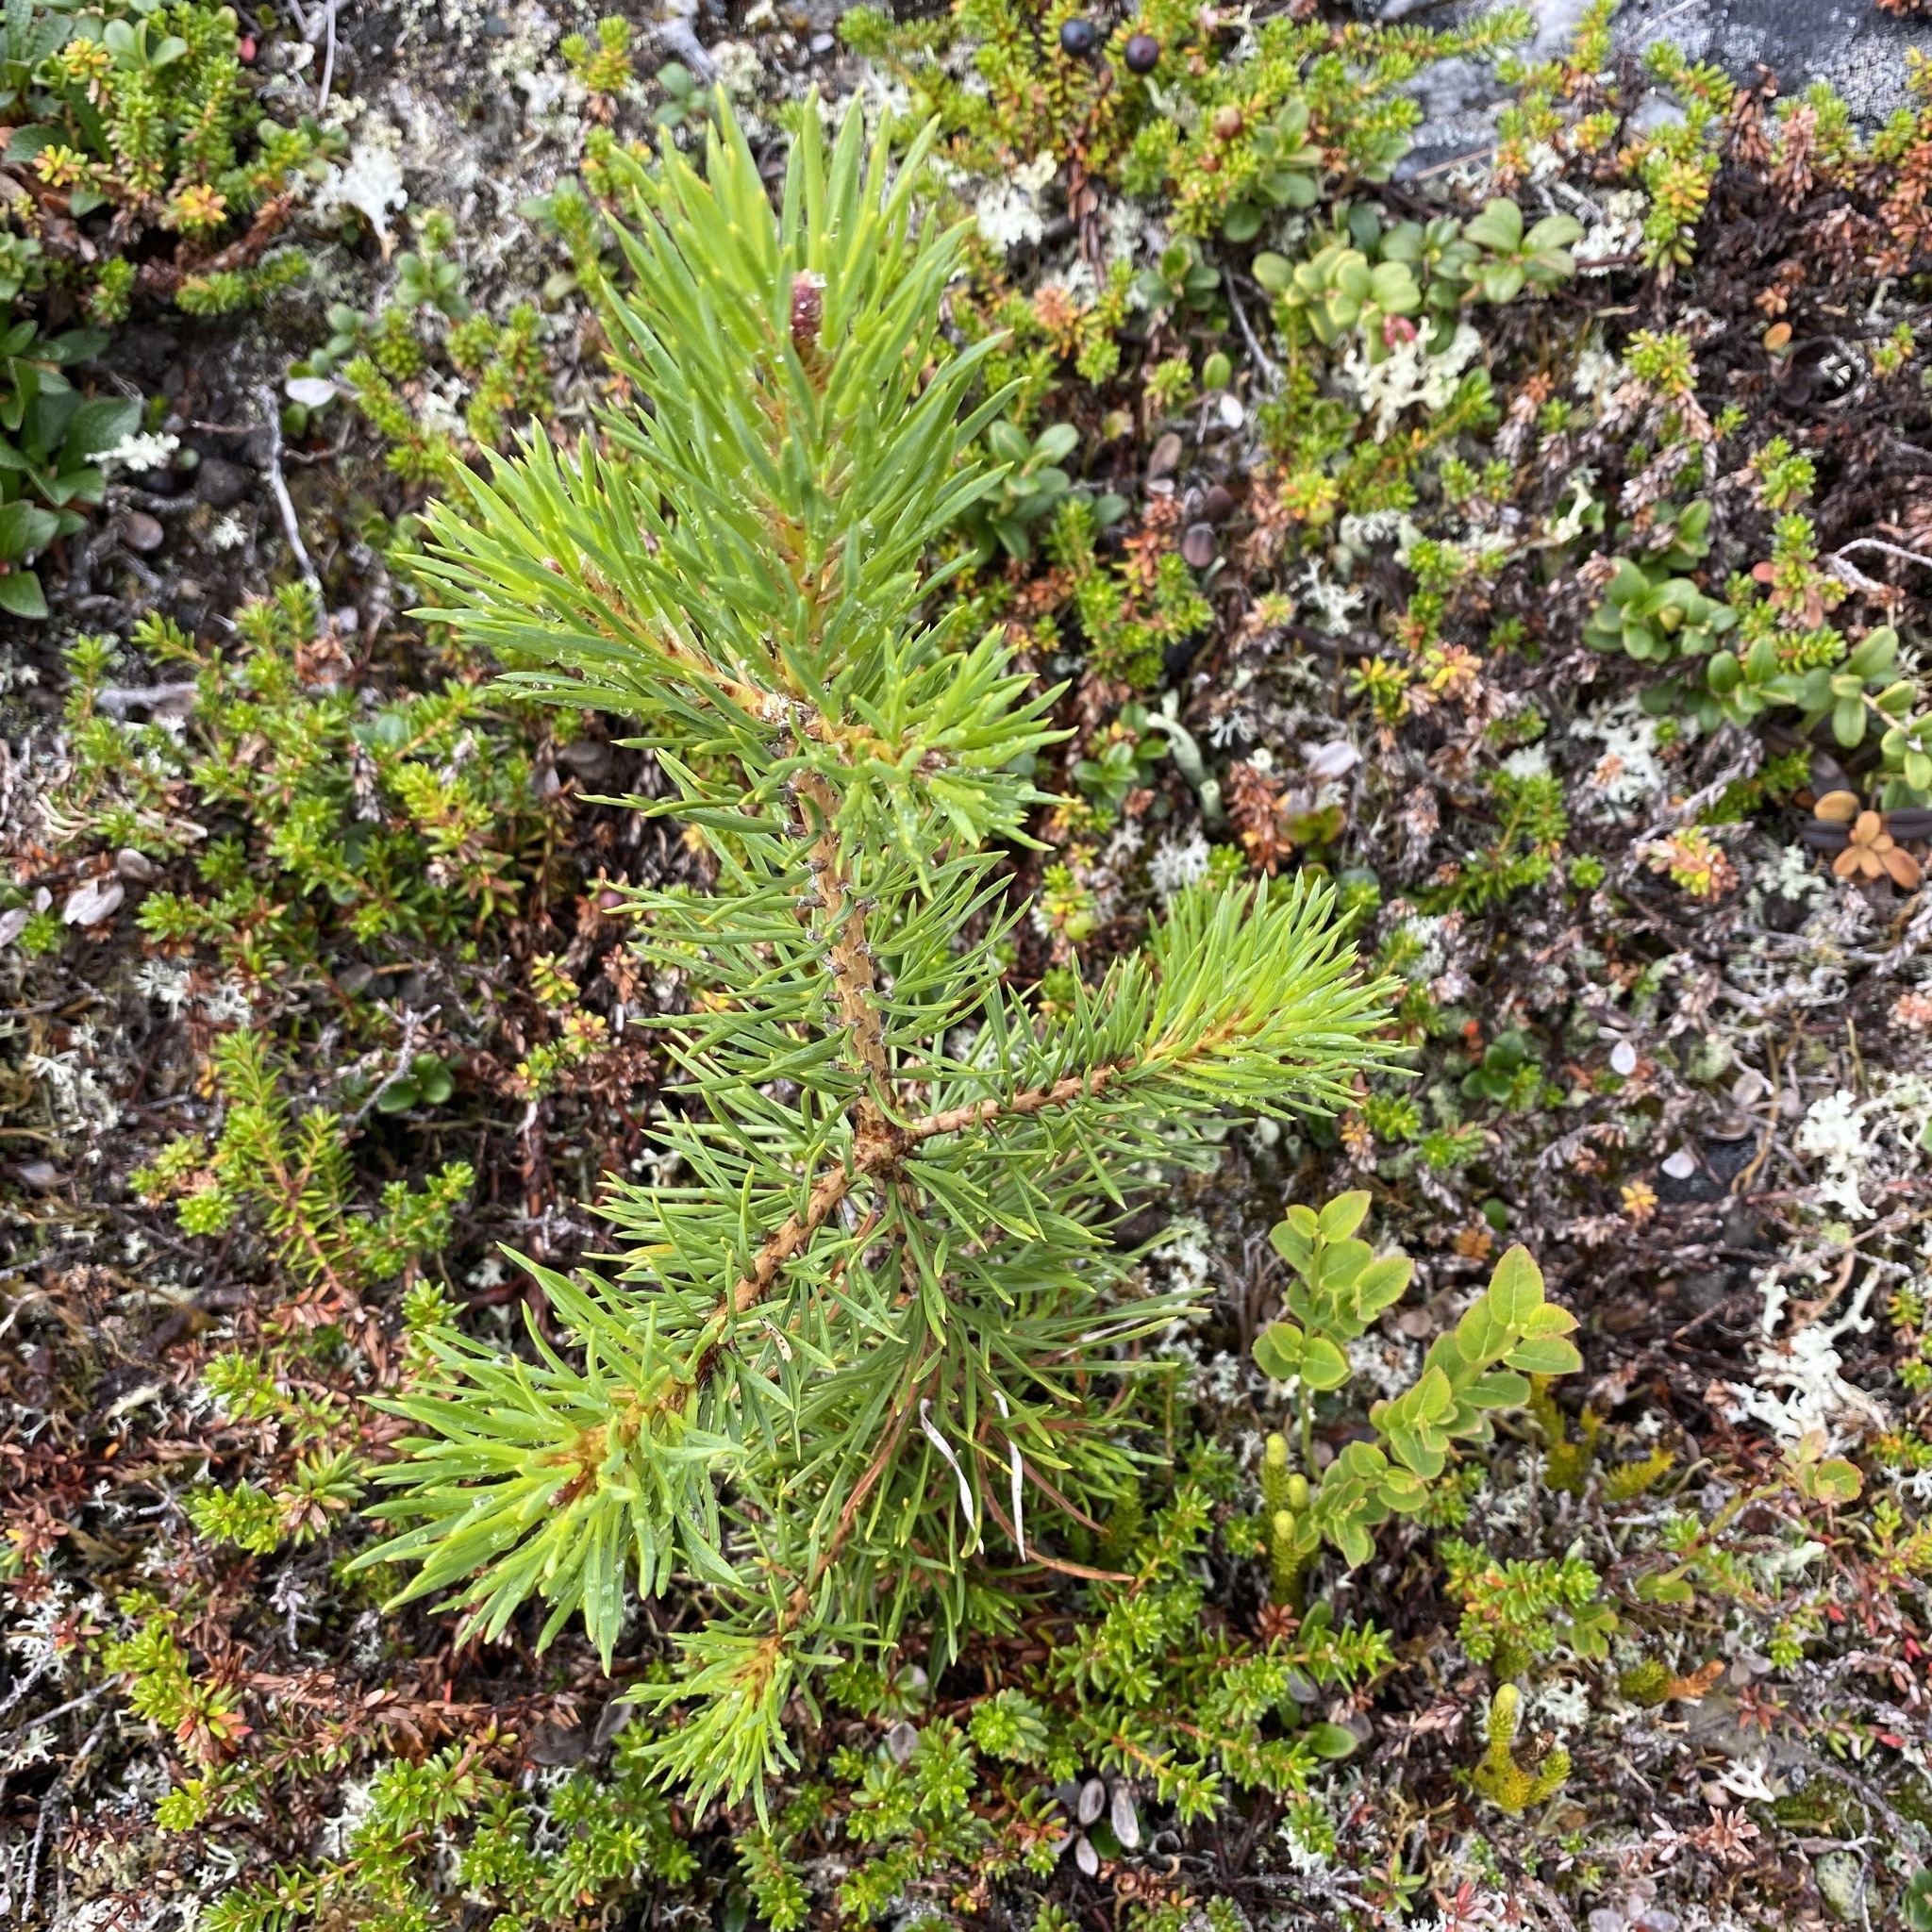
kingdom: Plantae
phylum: Tracheophyta
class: Pinopsida
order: Pinales
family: Pinaceae
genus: Pinus
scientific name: Pinus sylvestris
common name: Scots pine
